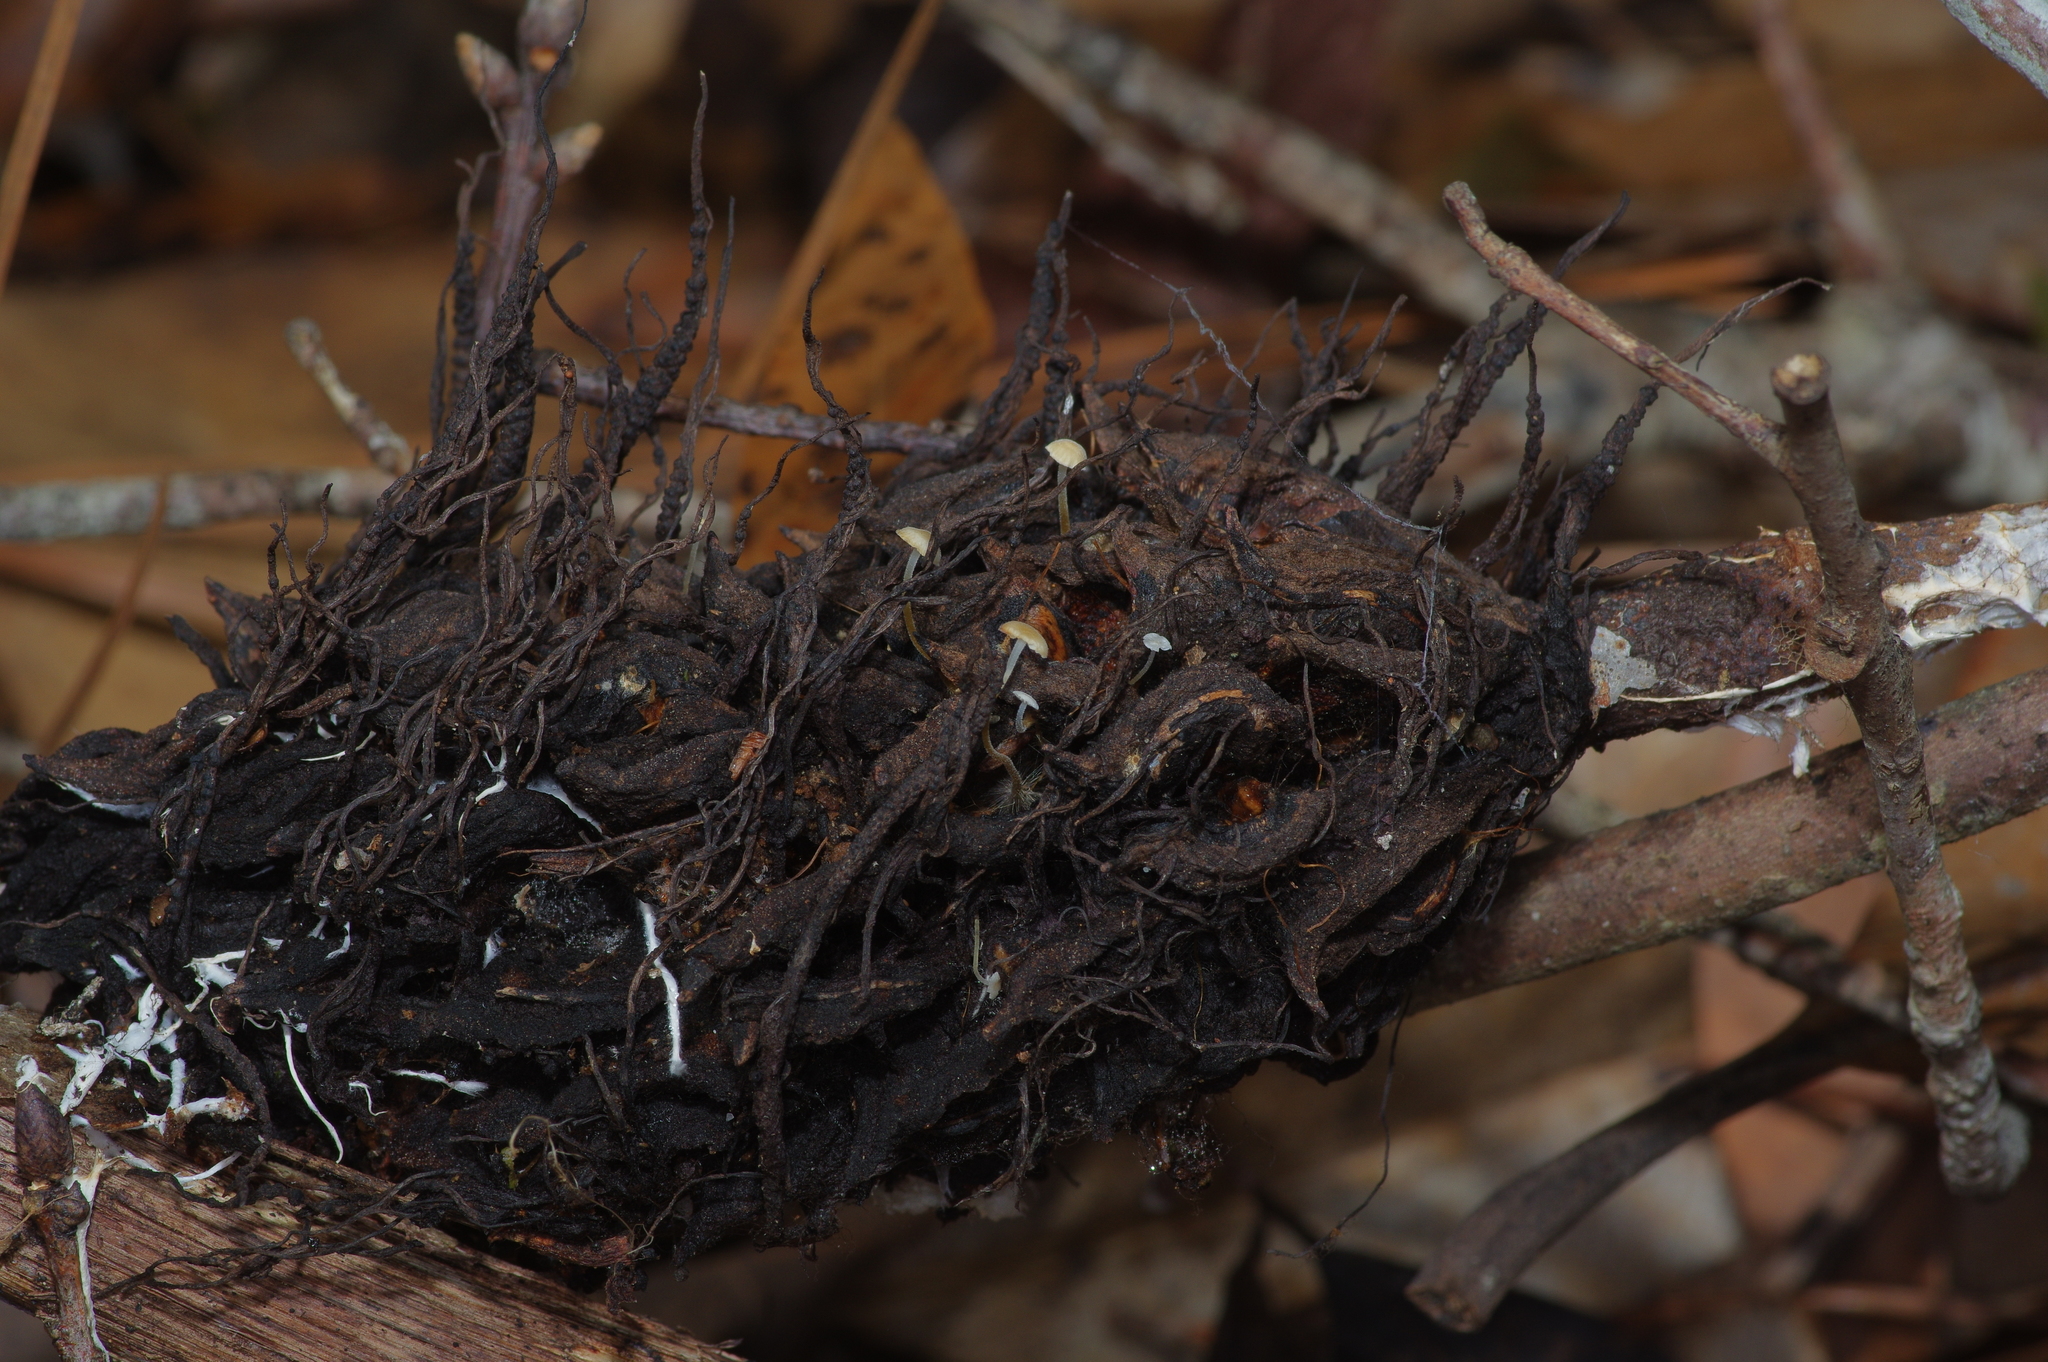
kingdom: Fungi
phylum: Basidiomycota
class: Agaricomycetes
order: Agaricales
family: Physalacriaceae
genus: Strobilurus
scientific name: Strobilurus conigenoides
